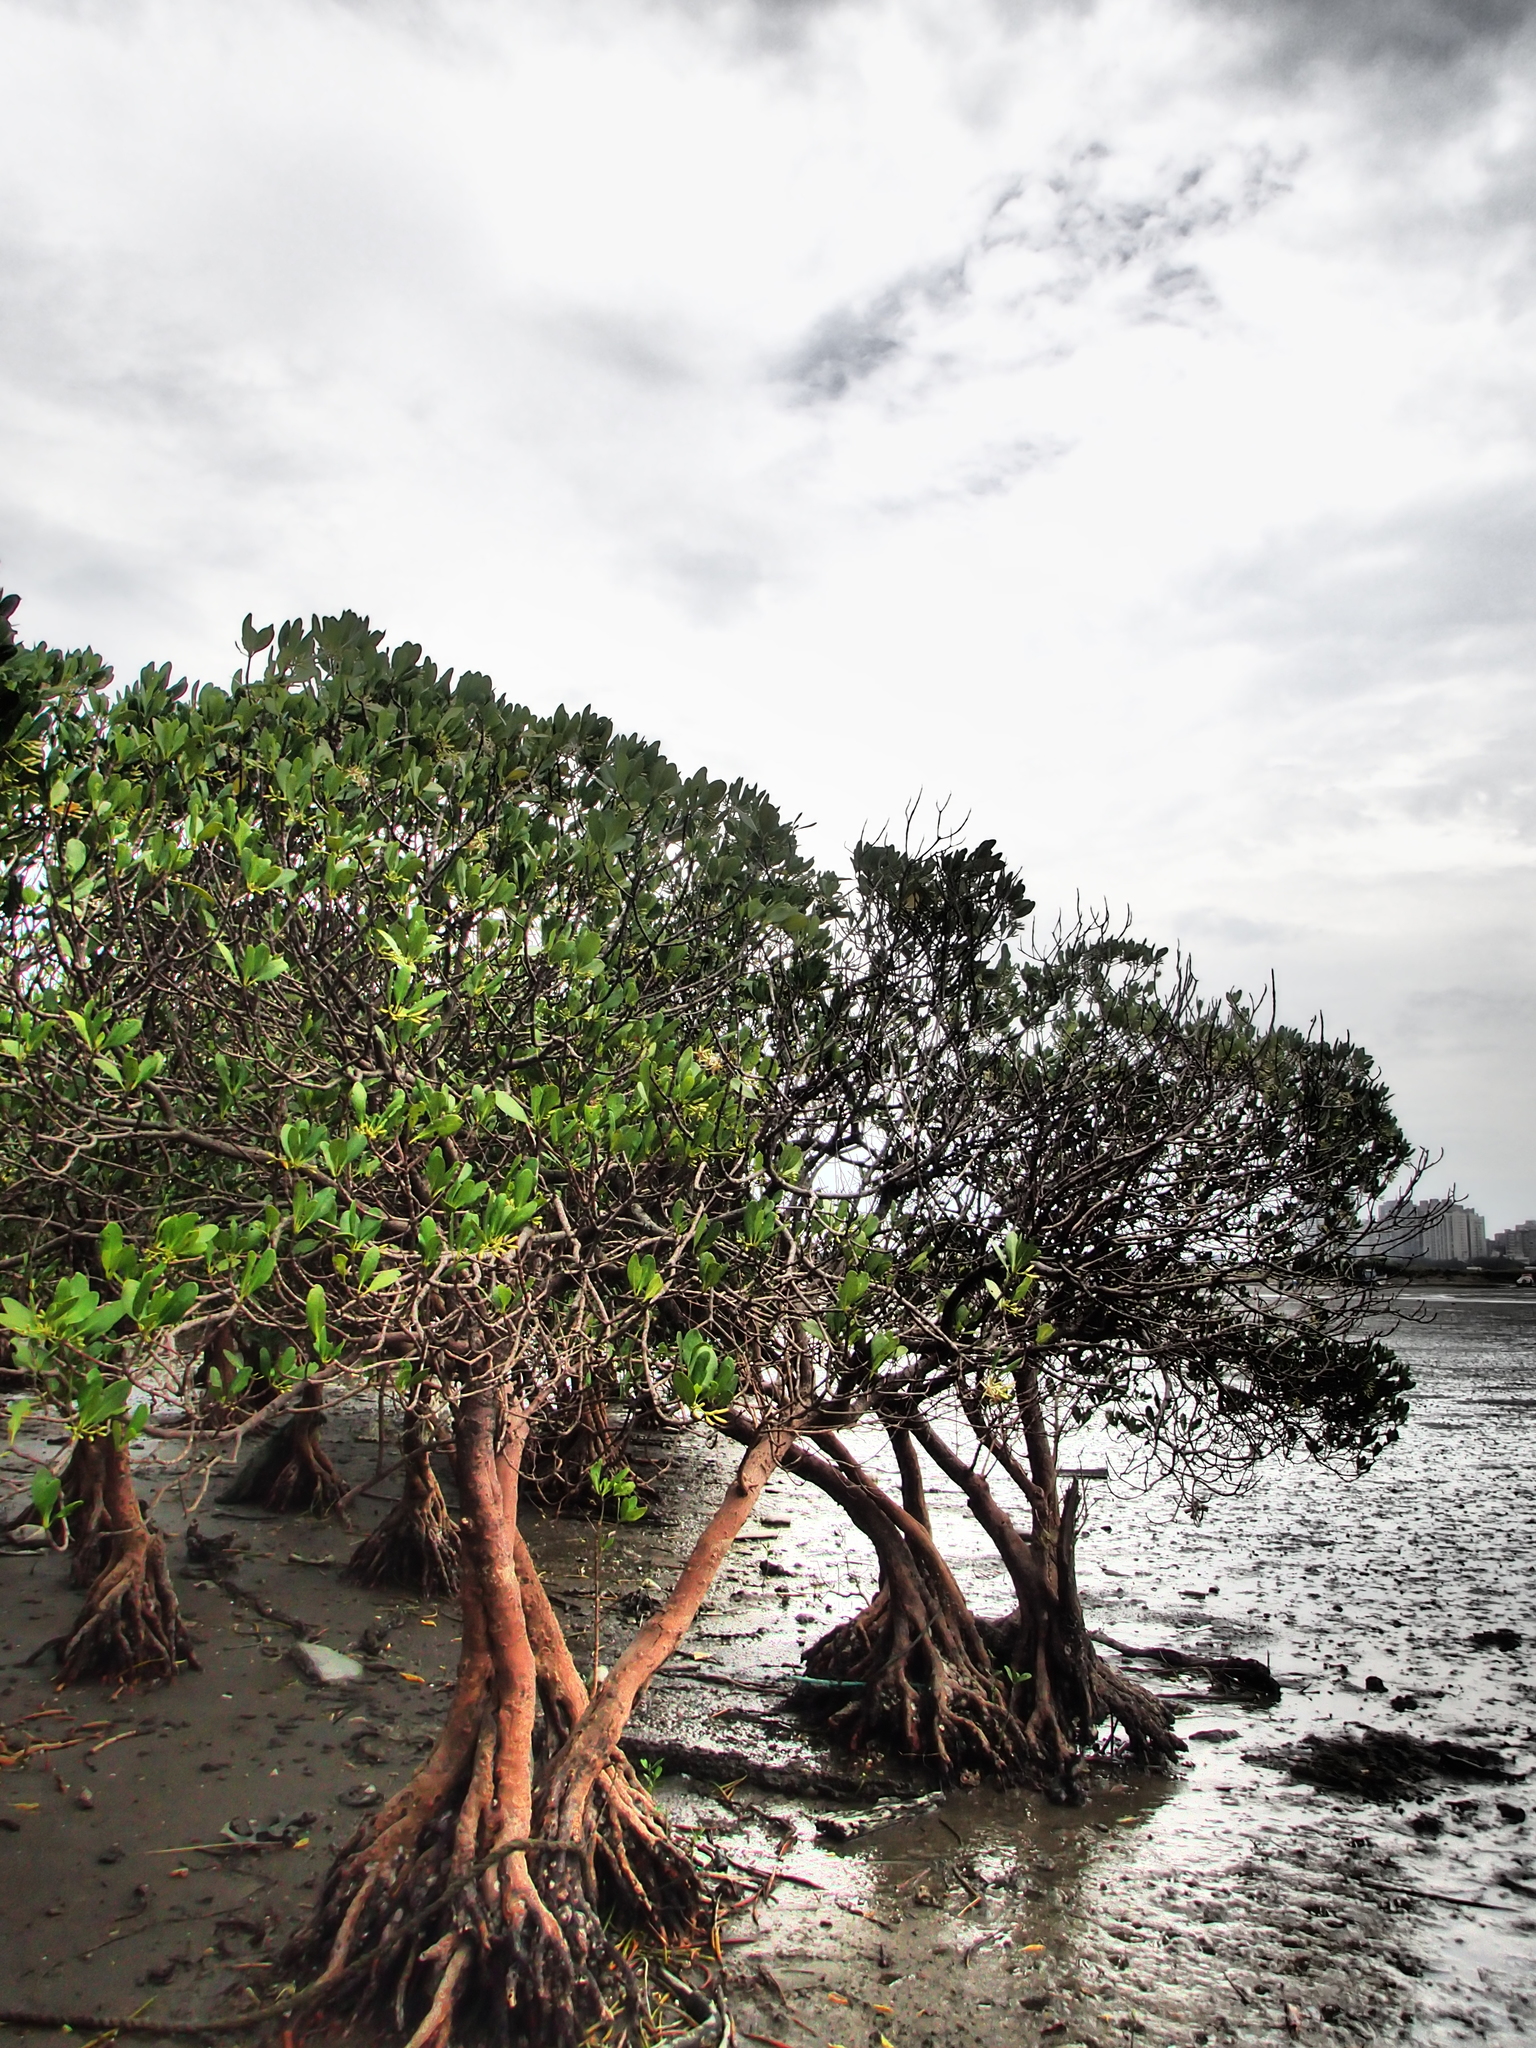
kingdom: Plantae
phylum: Tracheophyta
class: Magnoliopsida
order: Malpighiales
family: Rhizophoraceae
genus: Kandelia
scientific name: Kandelia obovata
